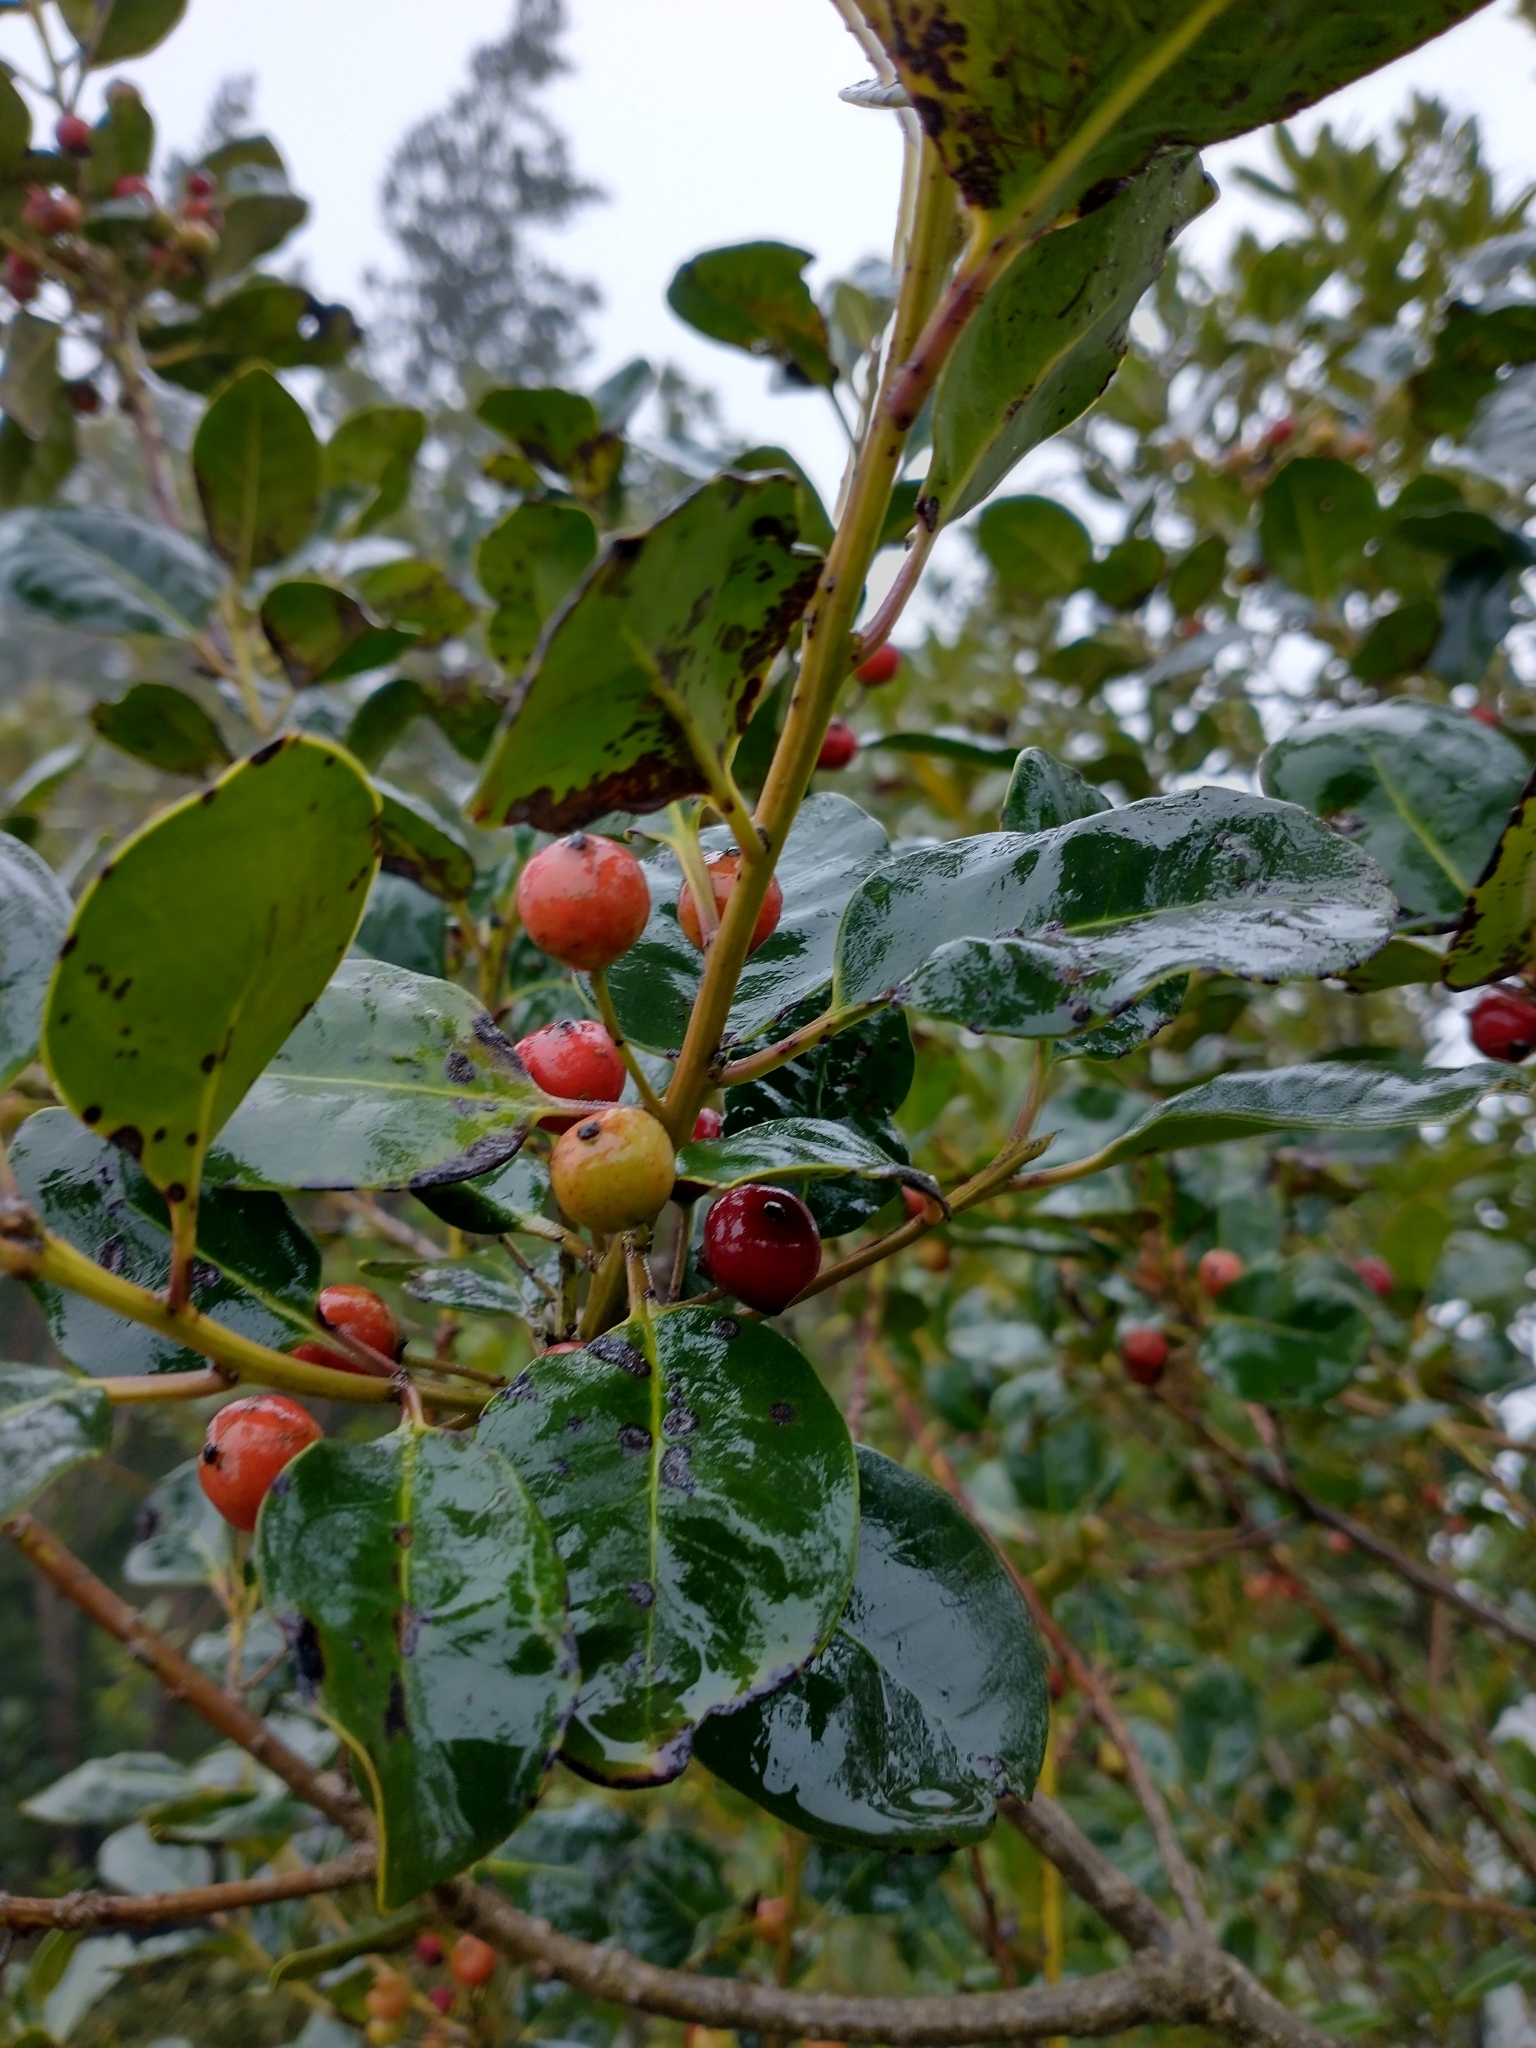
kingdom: Plantae
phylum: Tracheophyta
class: Magnoliopsida
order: Aquifoliales
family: Aquifoliaceae
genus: Ilex
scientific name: Ilex canariensis
